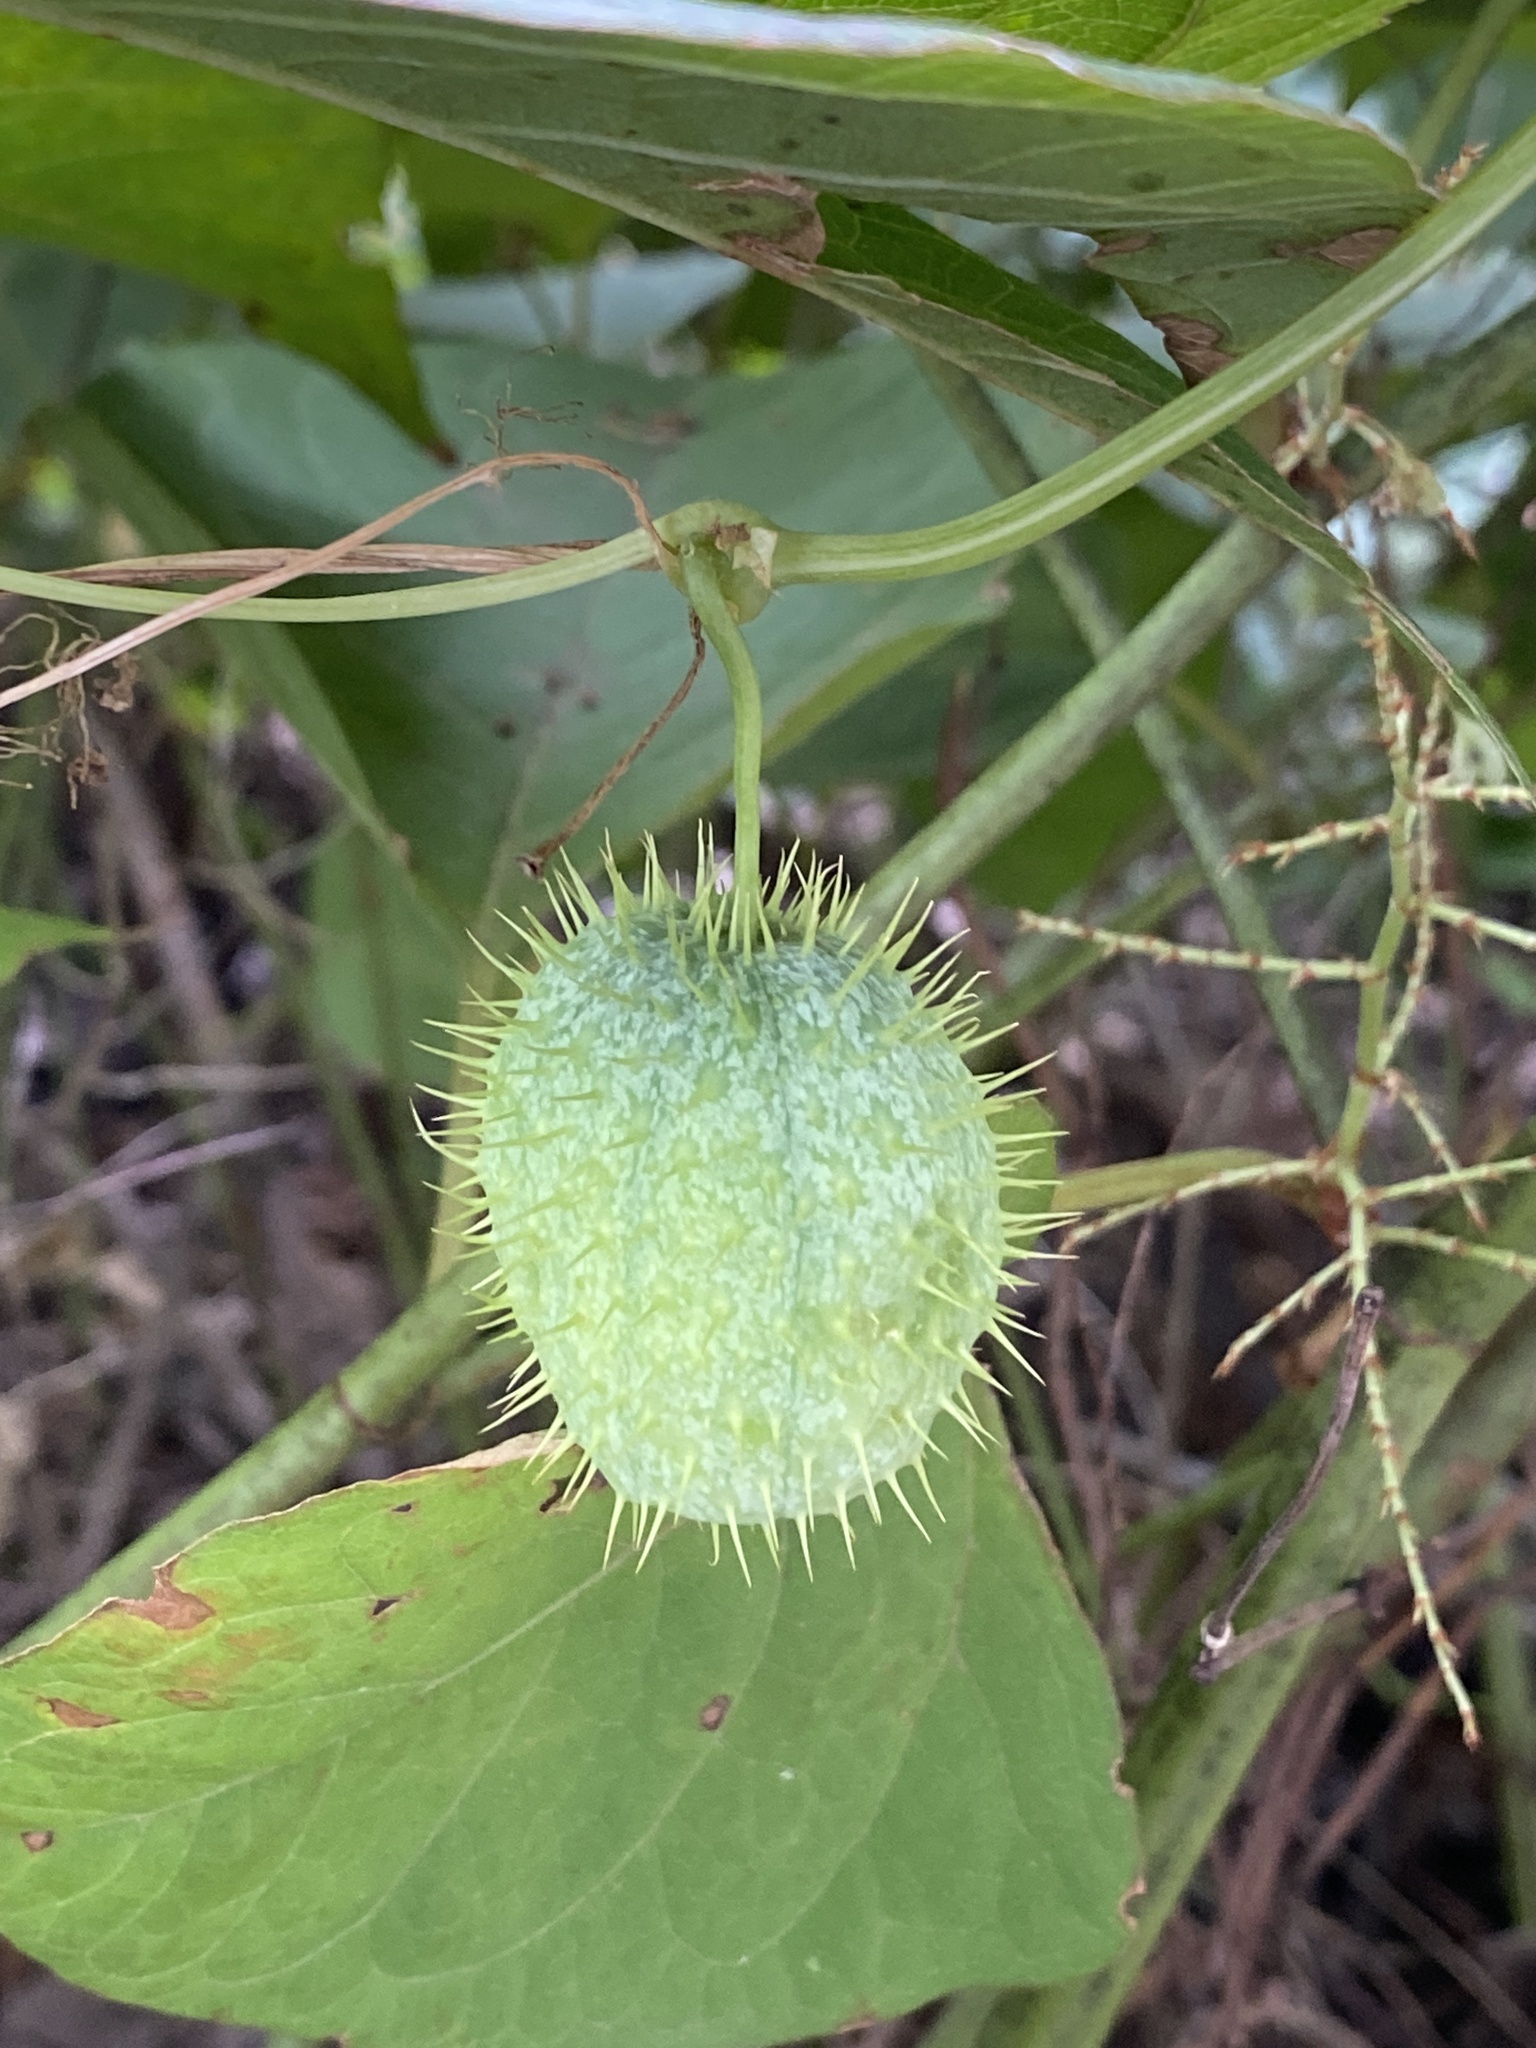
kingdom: Plantae
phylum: Tracheophyta
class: Magnoliopsida
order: Cucurbitales
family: Cucurbitaceae
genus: Echinocystis
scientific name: Echinocystis lobata
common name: Wild cucumber
